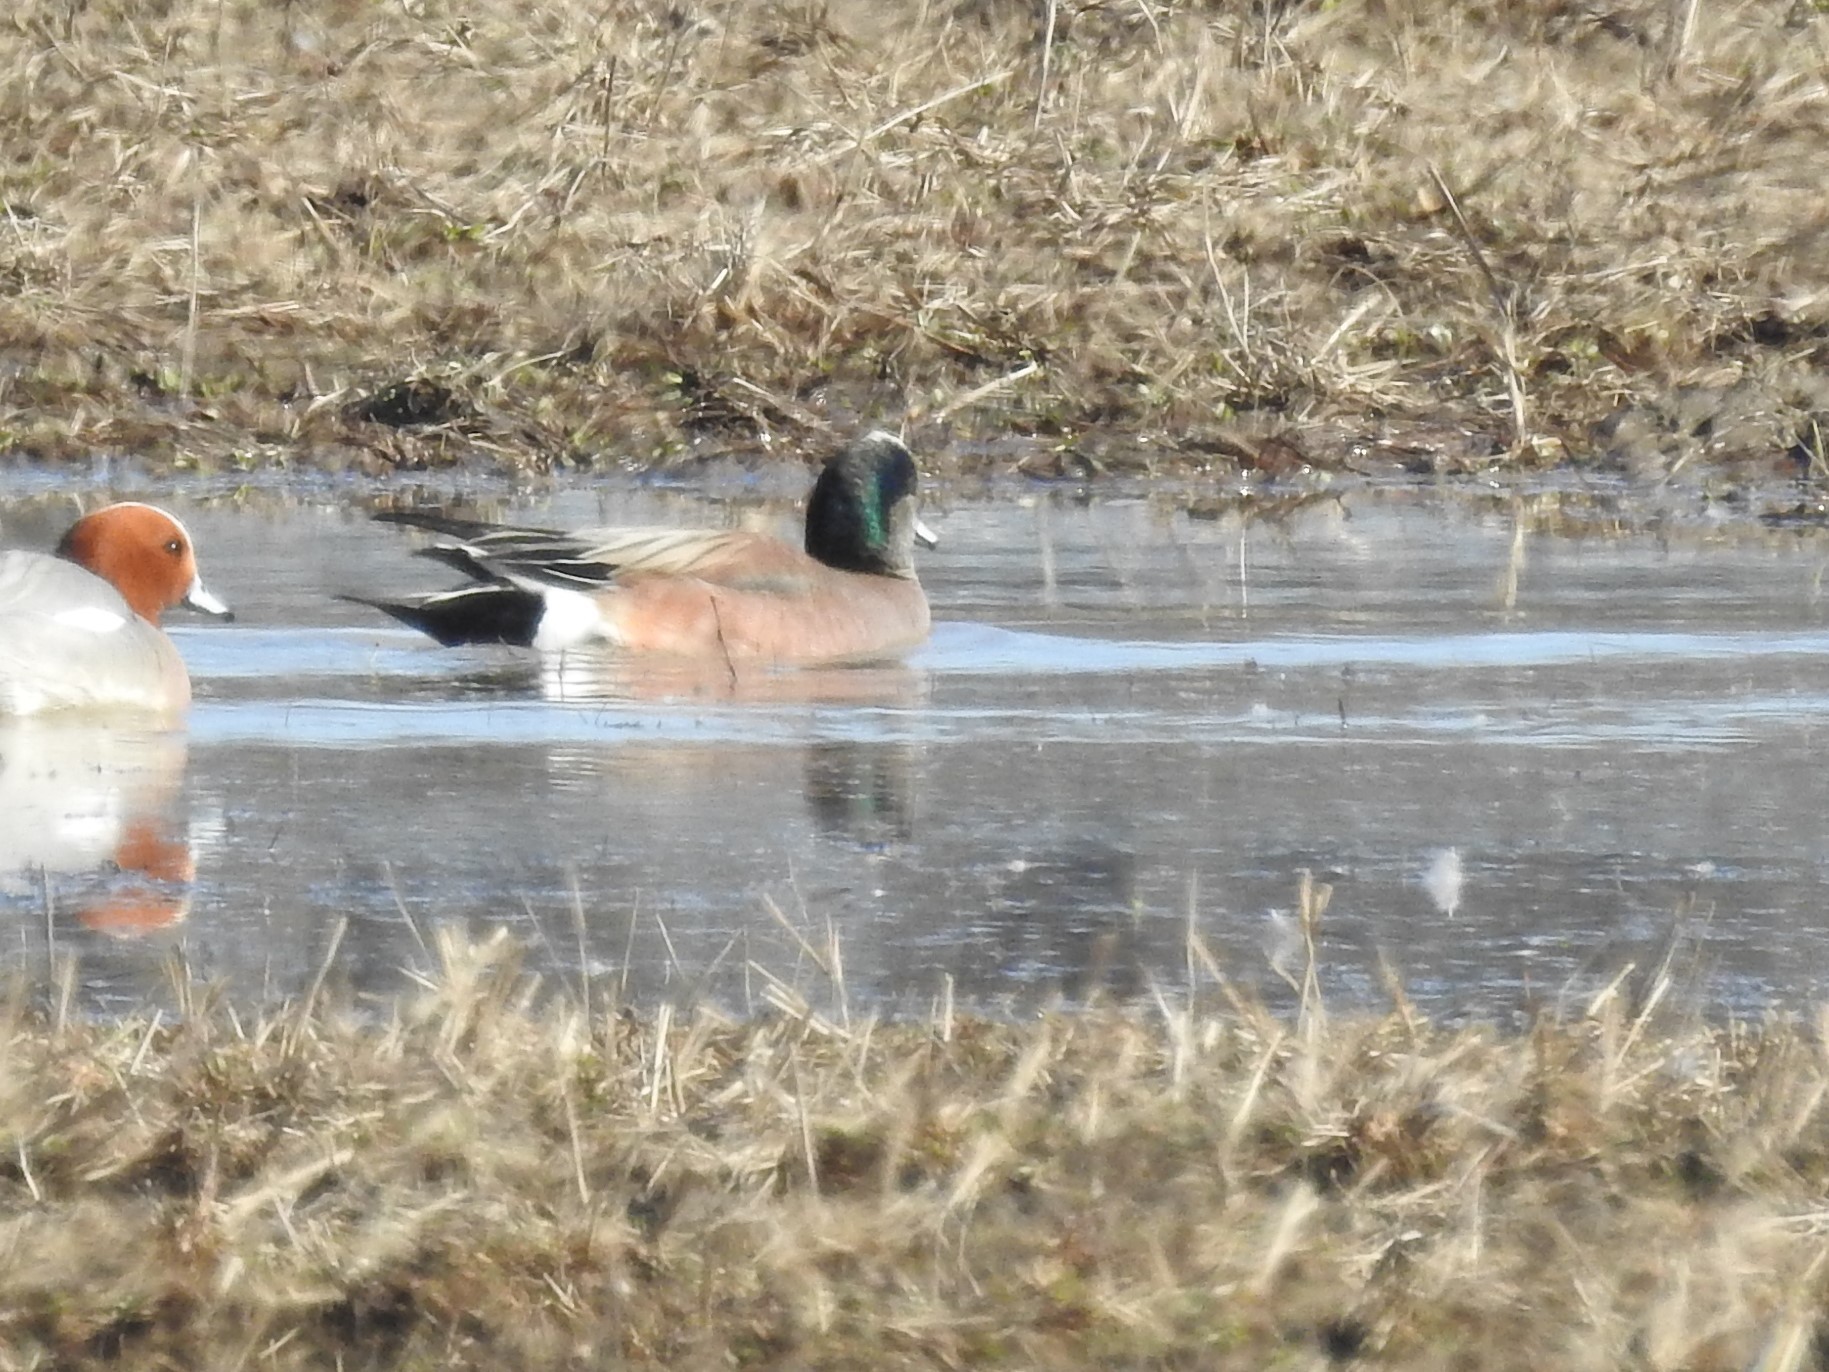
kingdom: Animalia
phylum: Chordata
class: Aves
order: Anseriformes
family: Anatidae
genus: Mareca
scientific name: Mareca americana
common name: American wigeon
